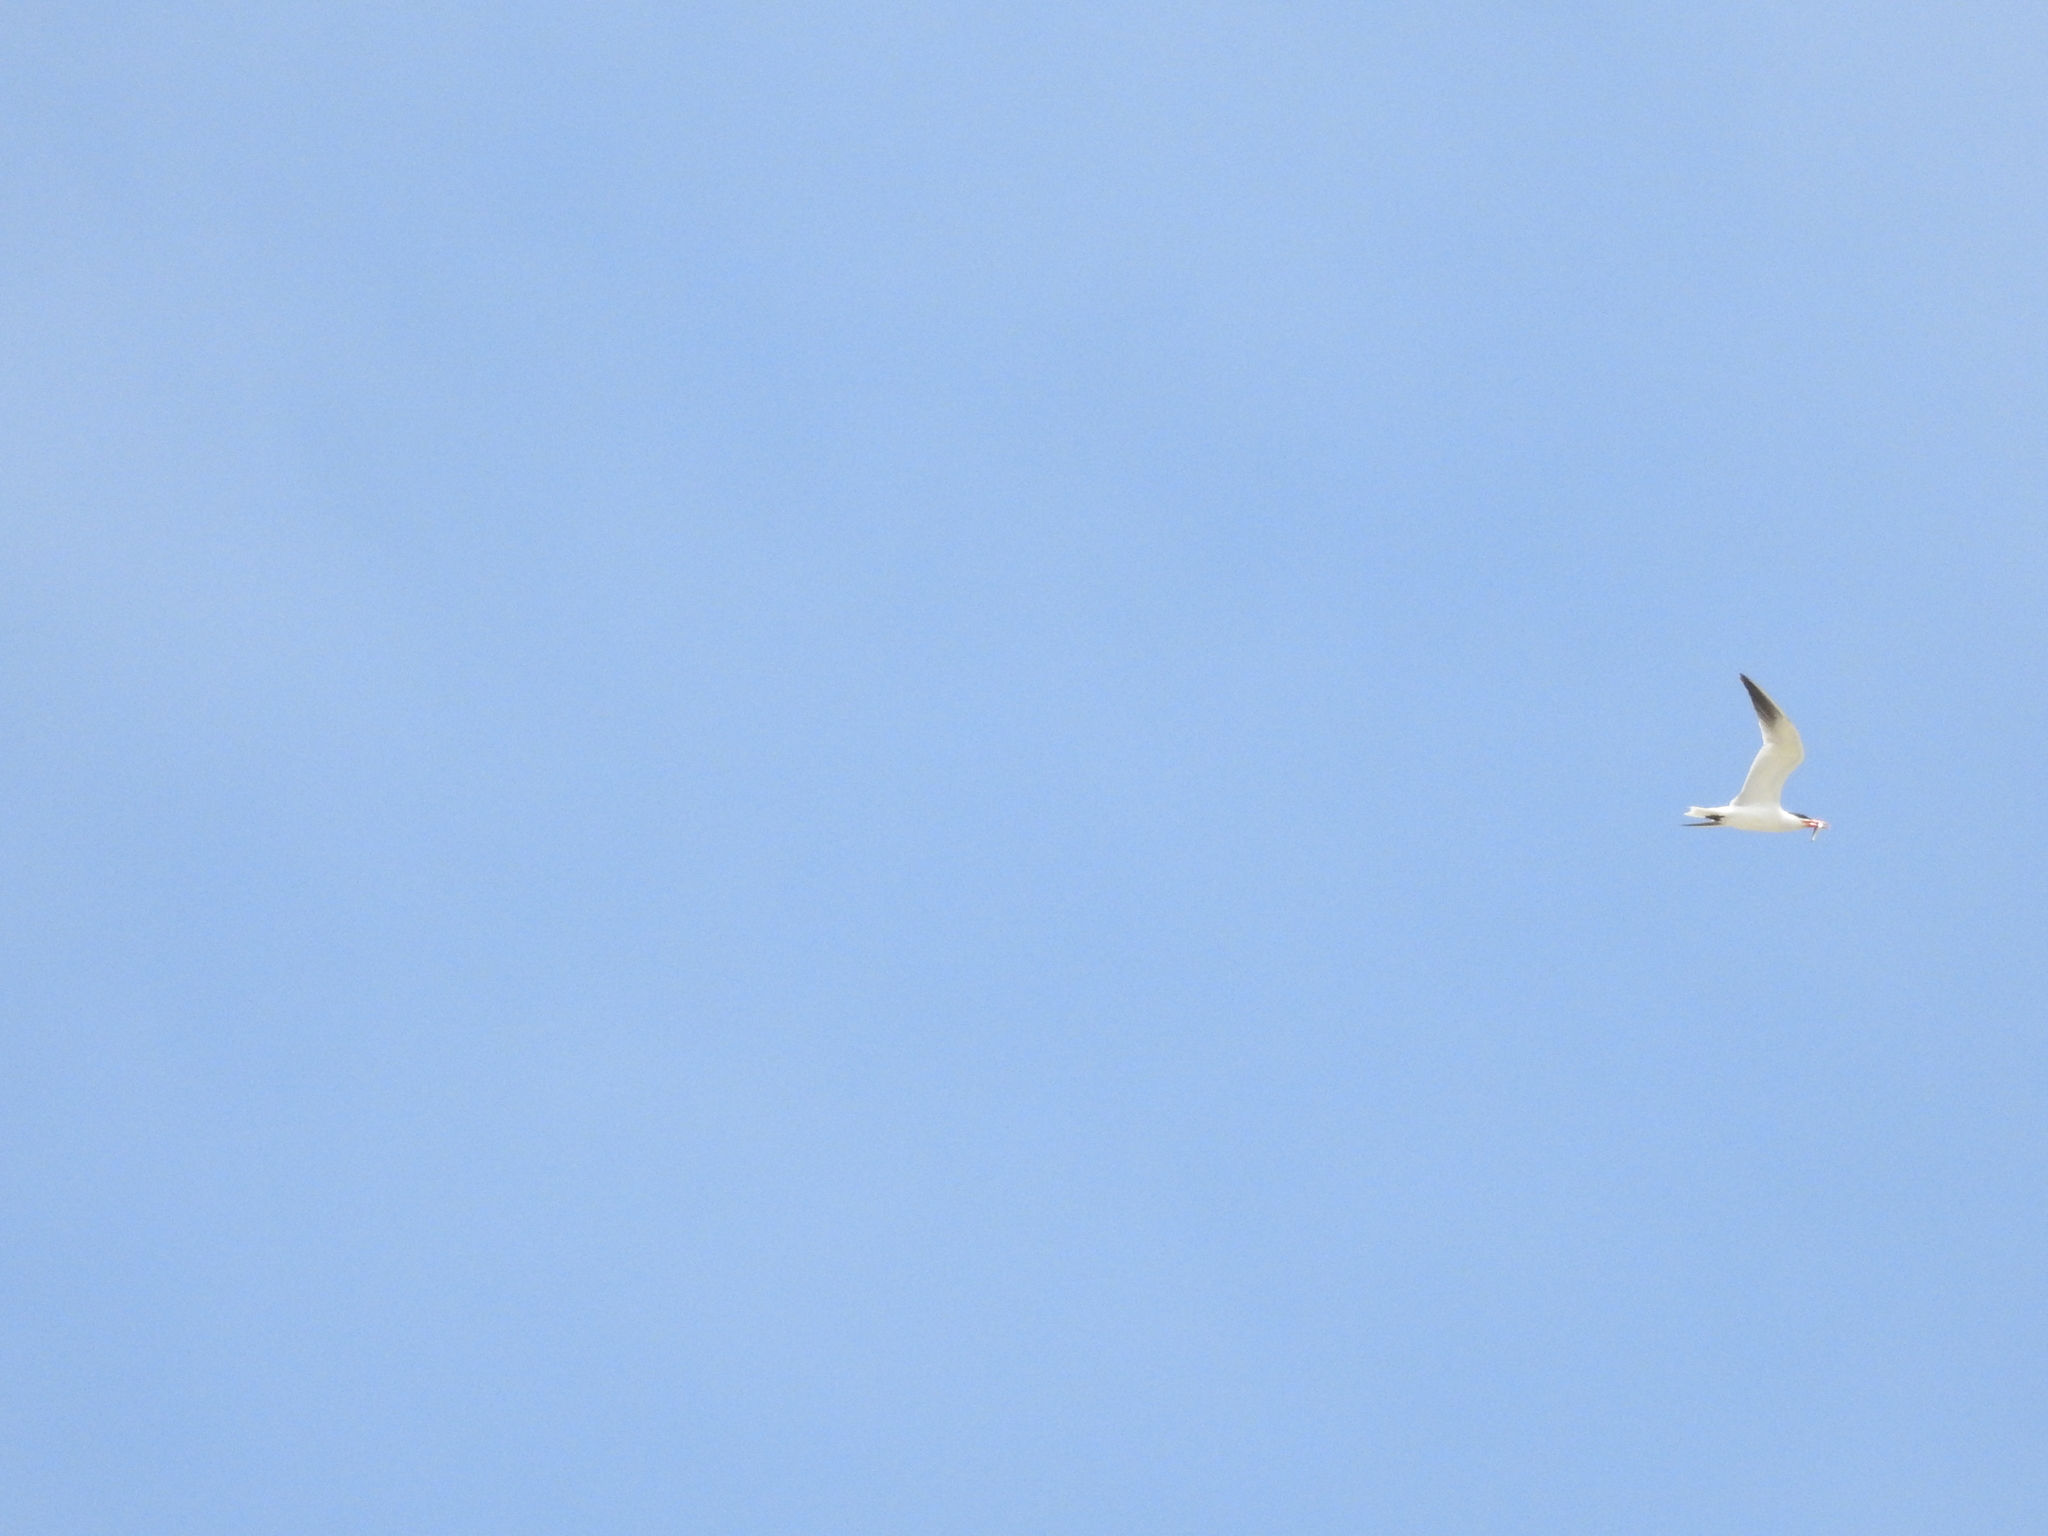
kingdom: Animalia
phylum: Chordata
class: Aves
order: Charadriiformes
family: Laridae
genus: Hydroprogne
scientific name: Hydroprogne caspia
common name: Caspian tern
